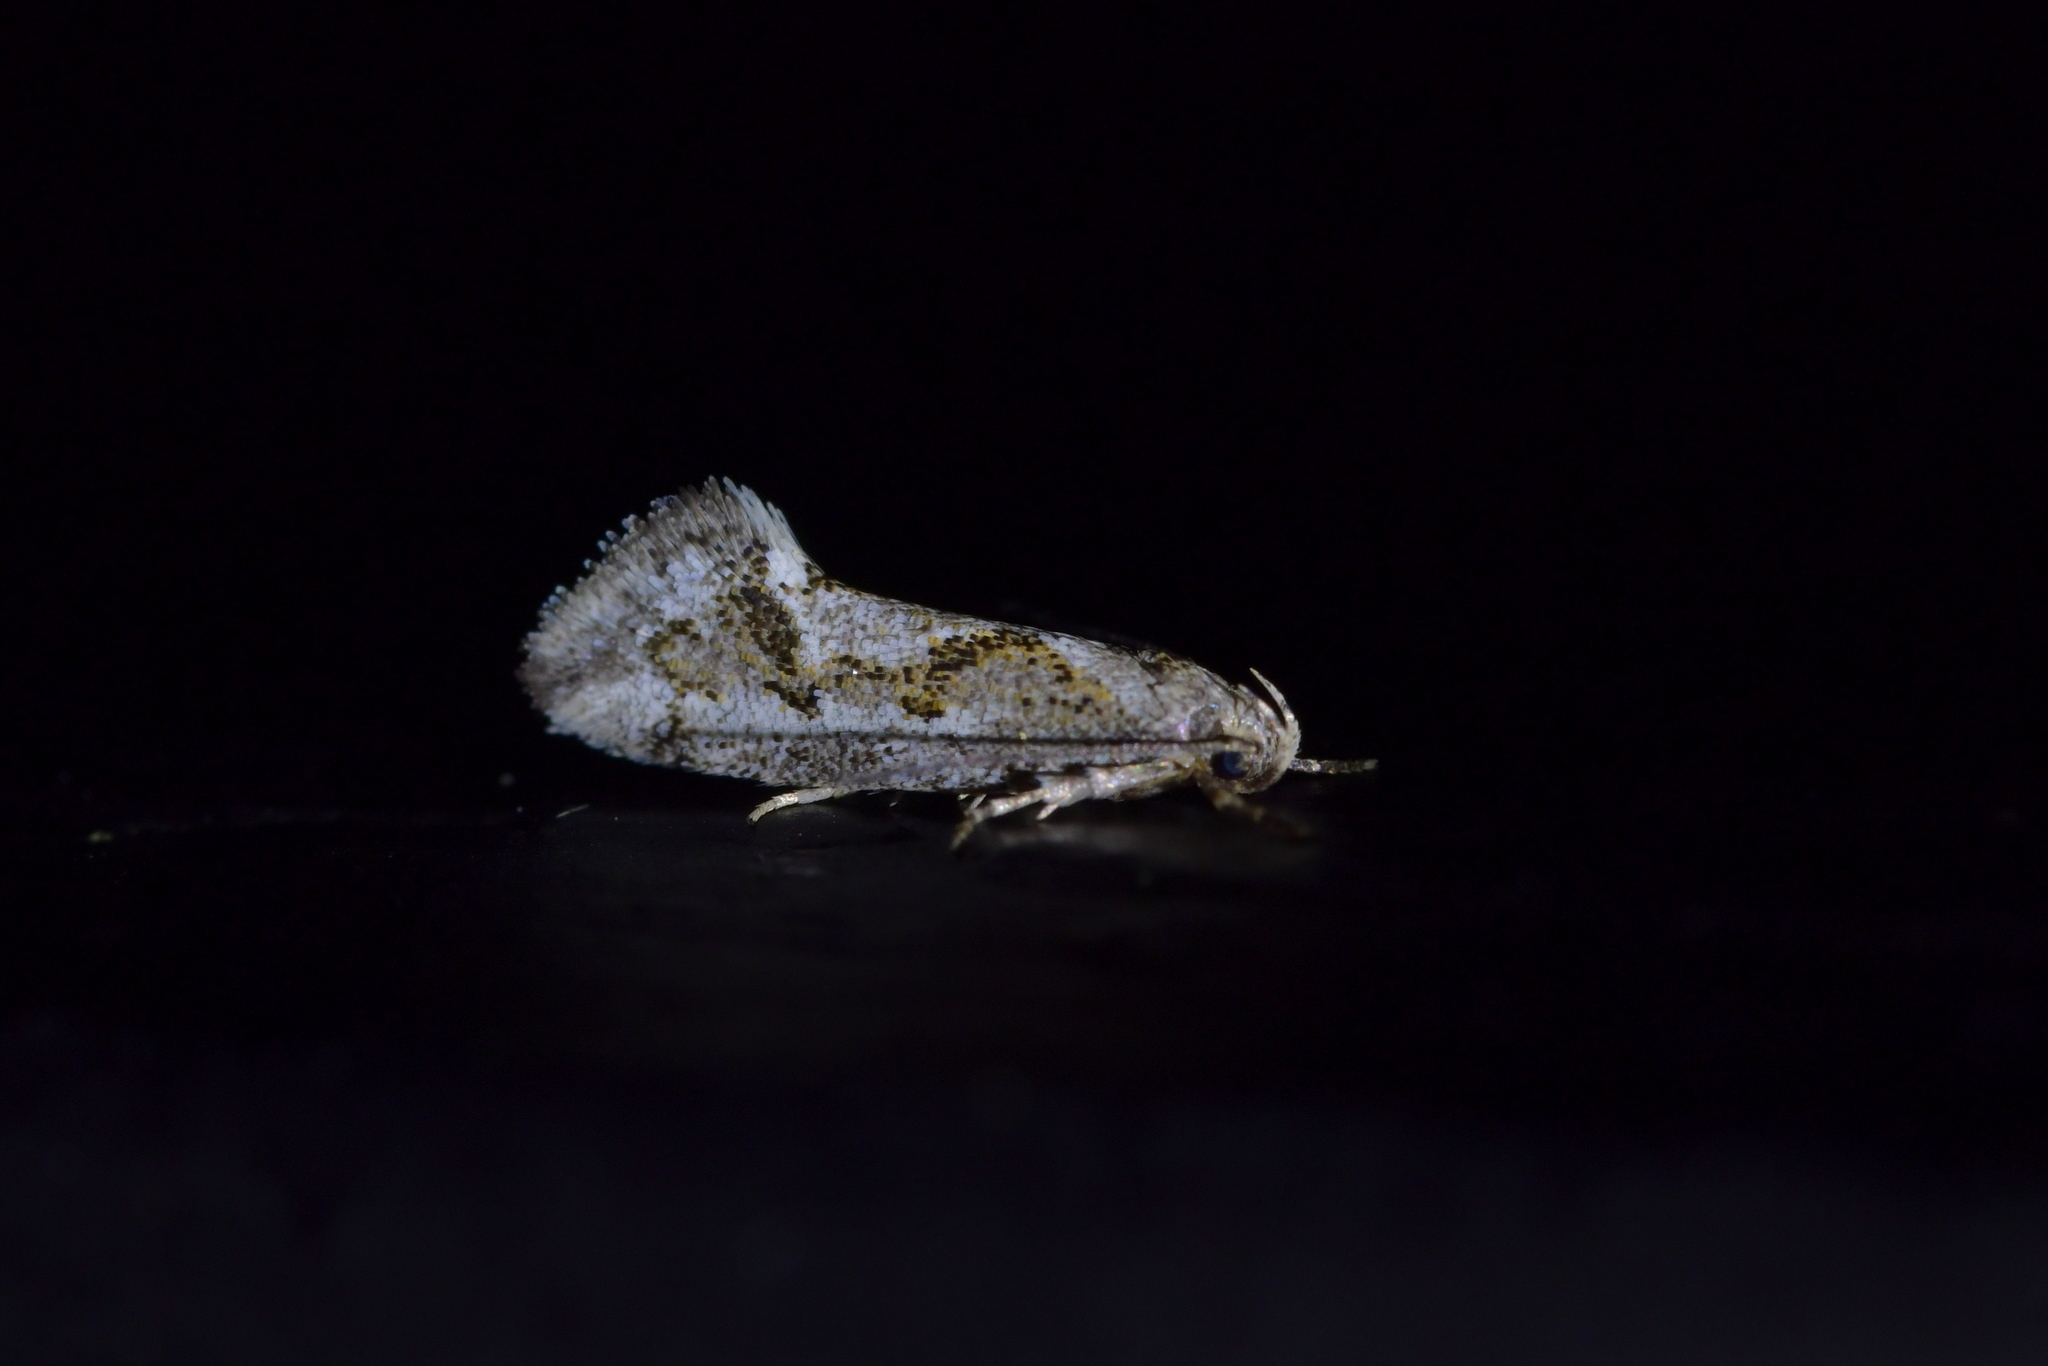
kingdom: Animalia
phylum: Arthropoda
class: Insecta
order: Lepidoptera
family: Oecophoridae
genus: Tingena
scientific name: Tingena hemimochla
